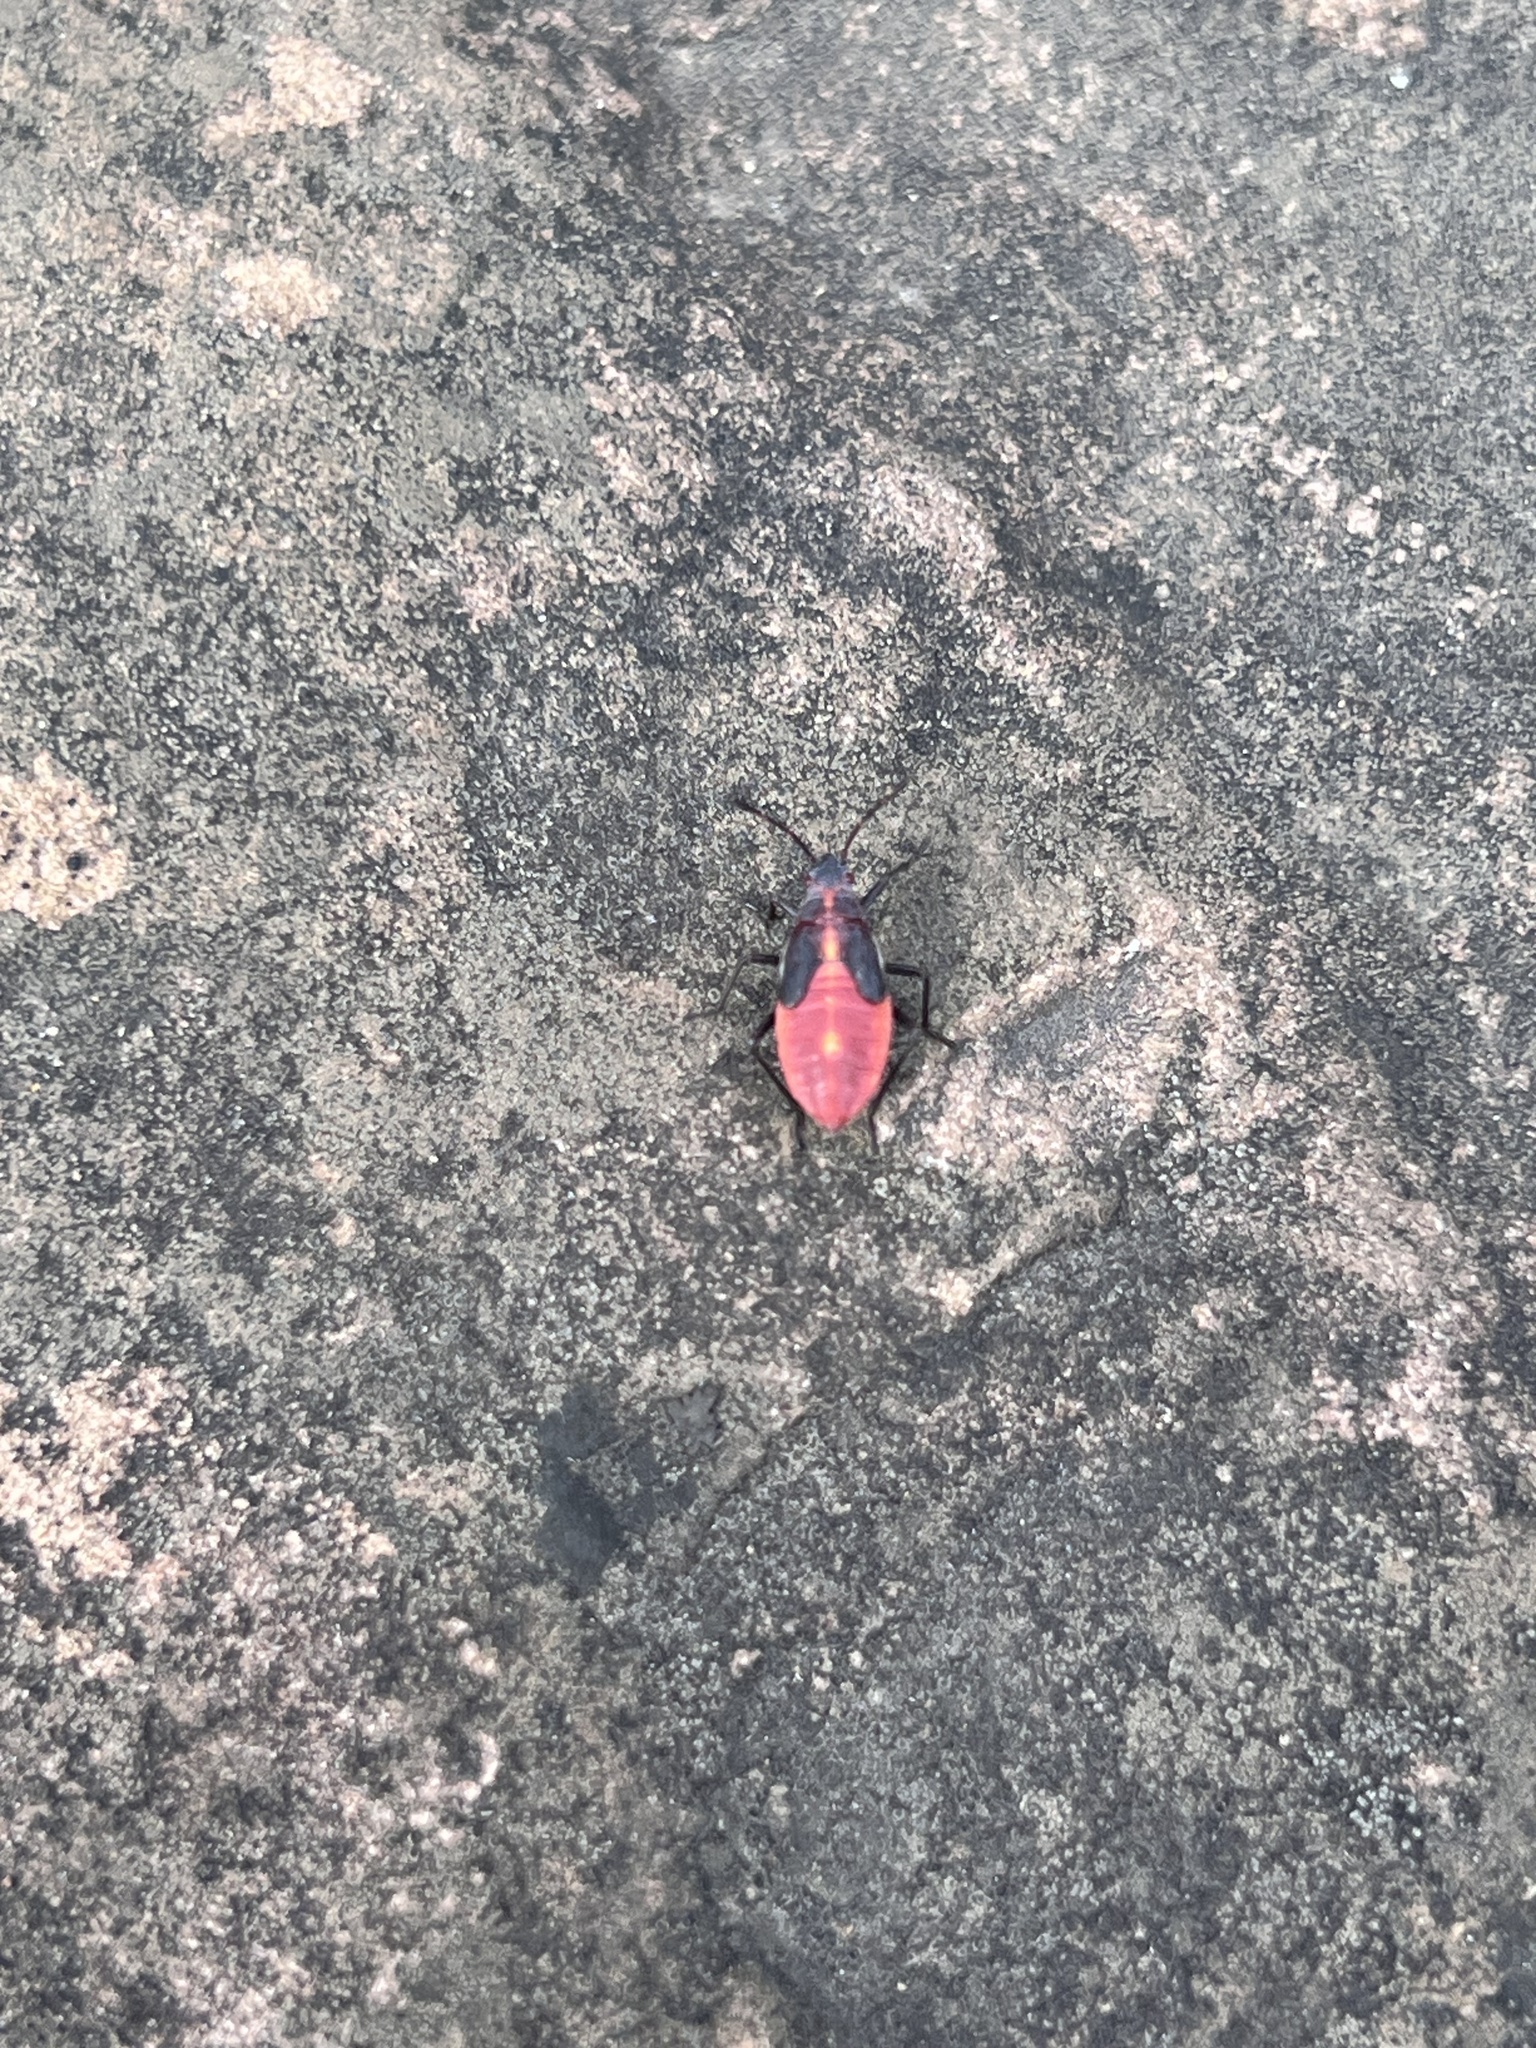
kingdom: Animalia
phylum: Arthropoda
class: Insecta
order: Hemiptera
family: Rhopalidae
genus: Boisea
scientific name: Boisea trivittata
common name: Boxelder bug
